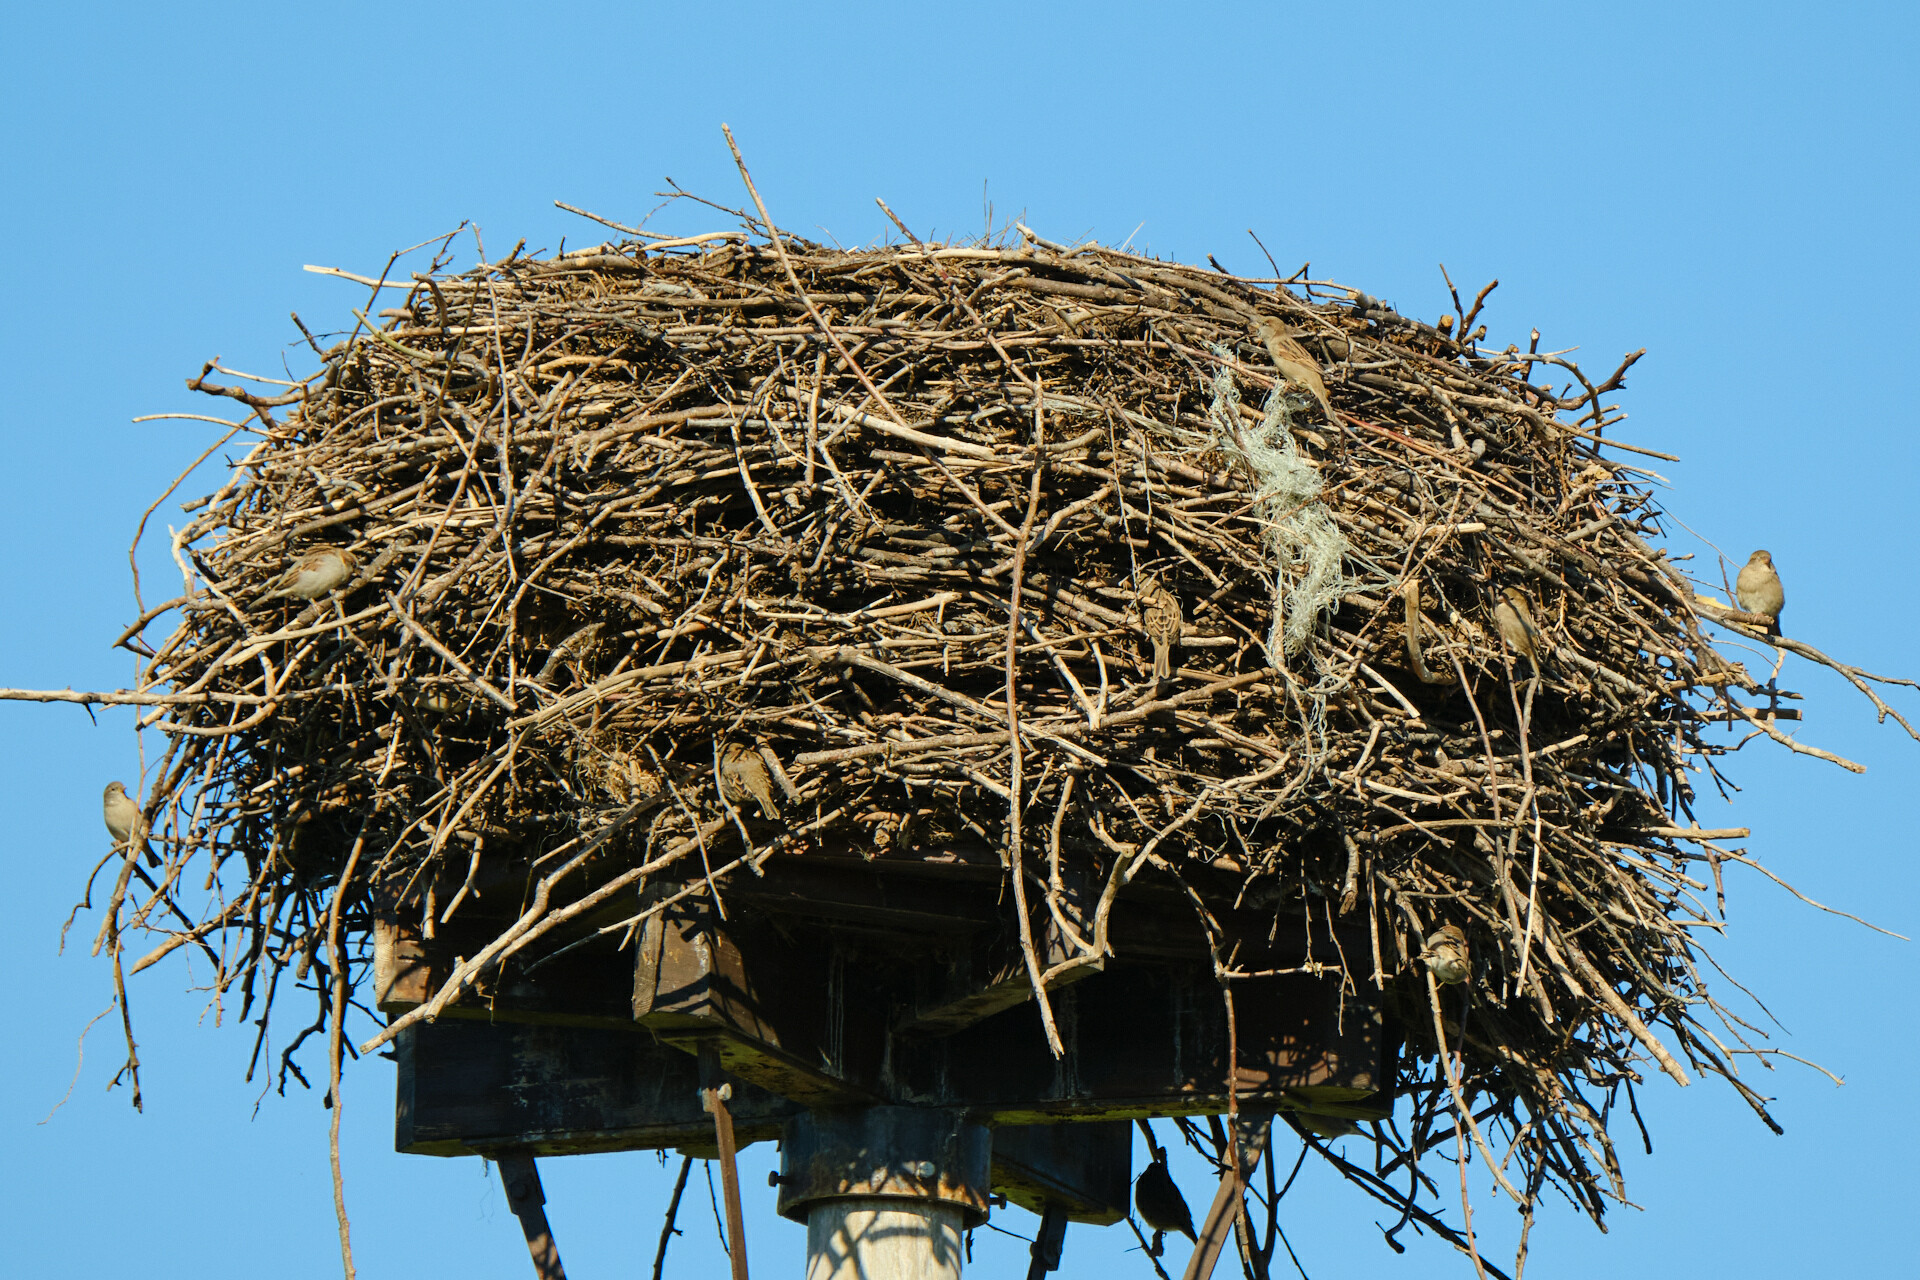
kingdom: Animalia
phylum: Chordata
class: Aves
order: Passeriformes
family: Passeridae
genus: Passer
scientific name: Passer domesticus
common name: House sparrow
